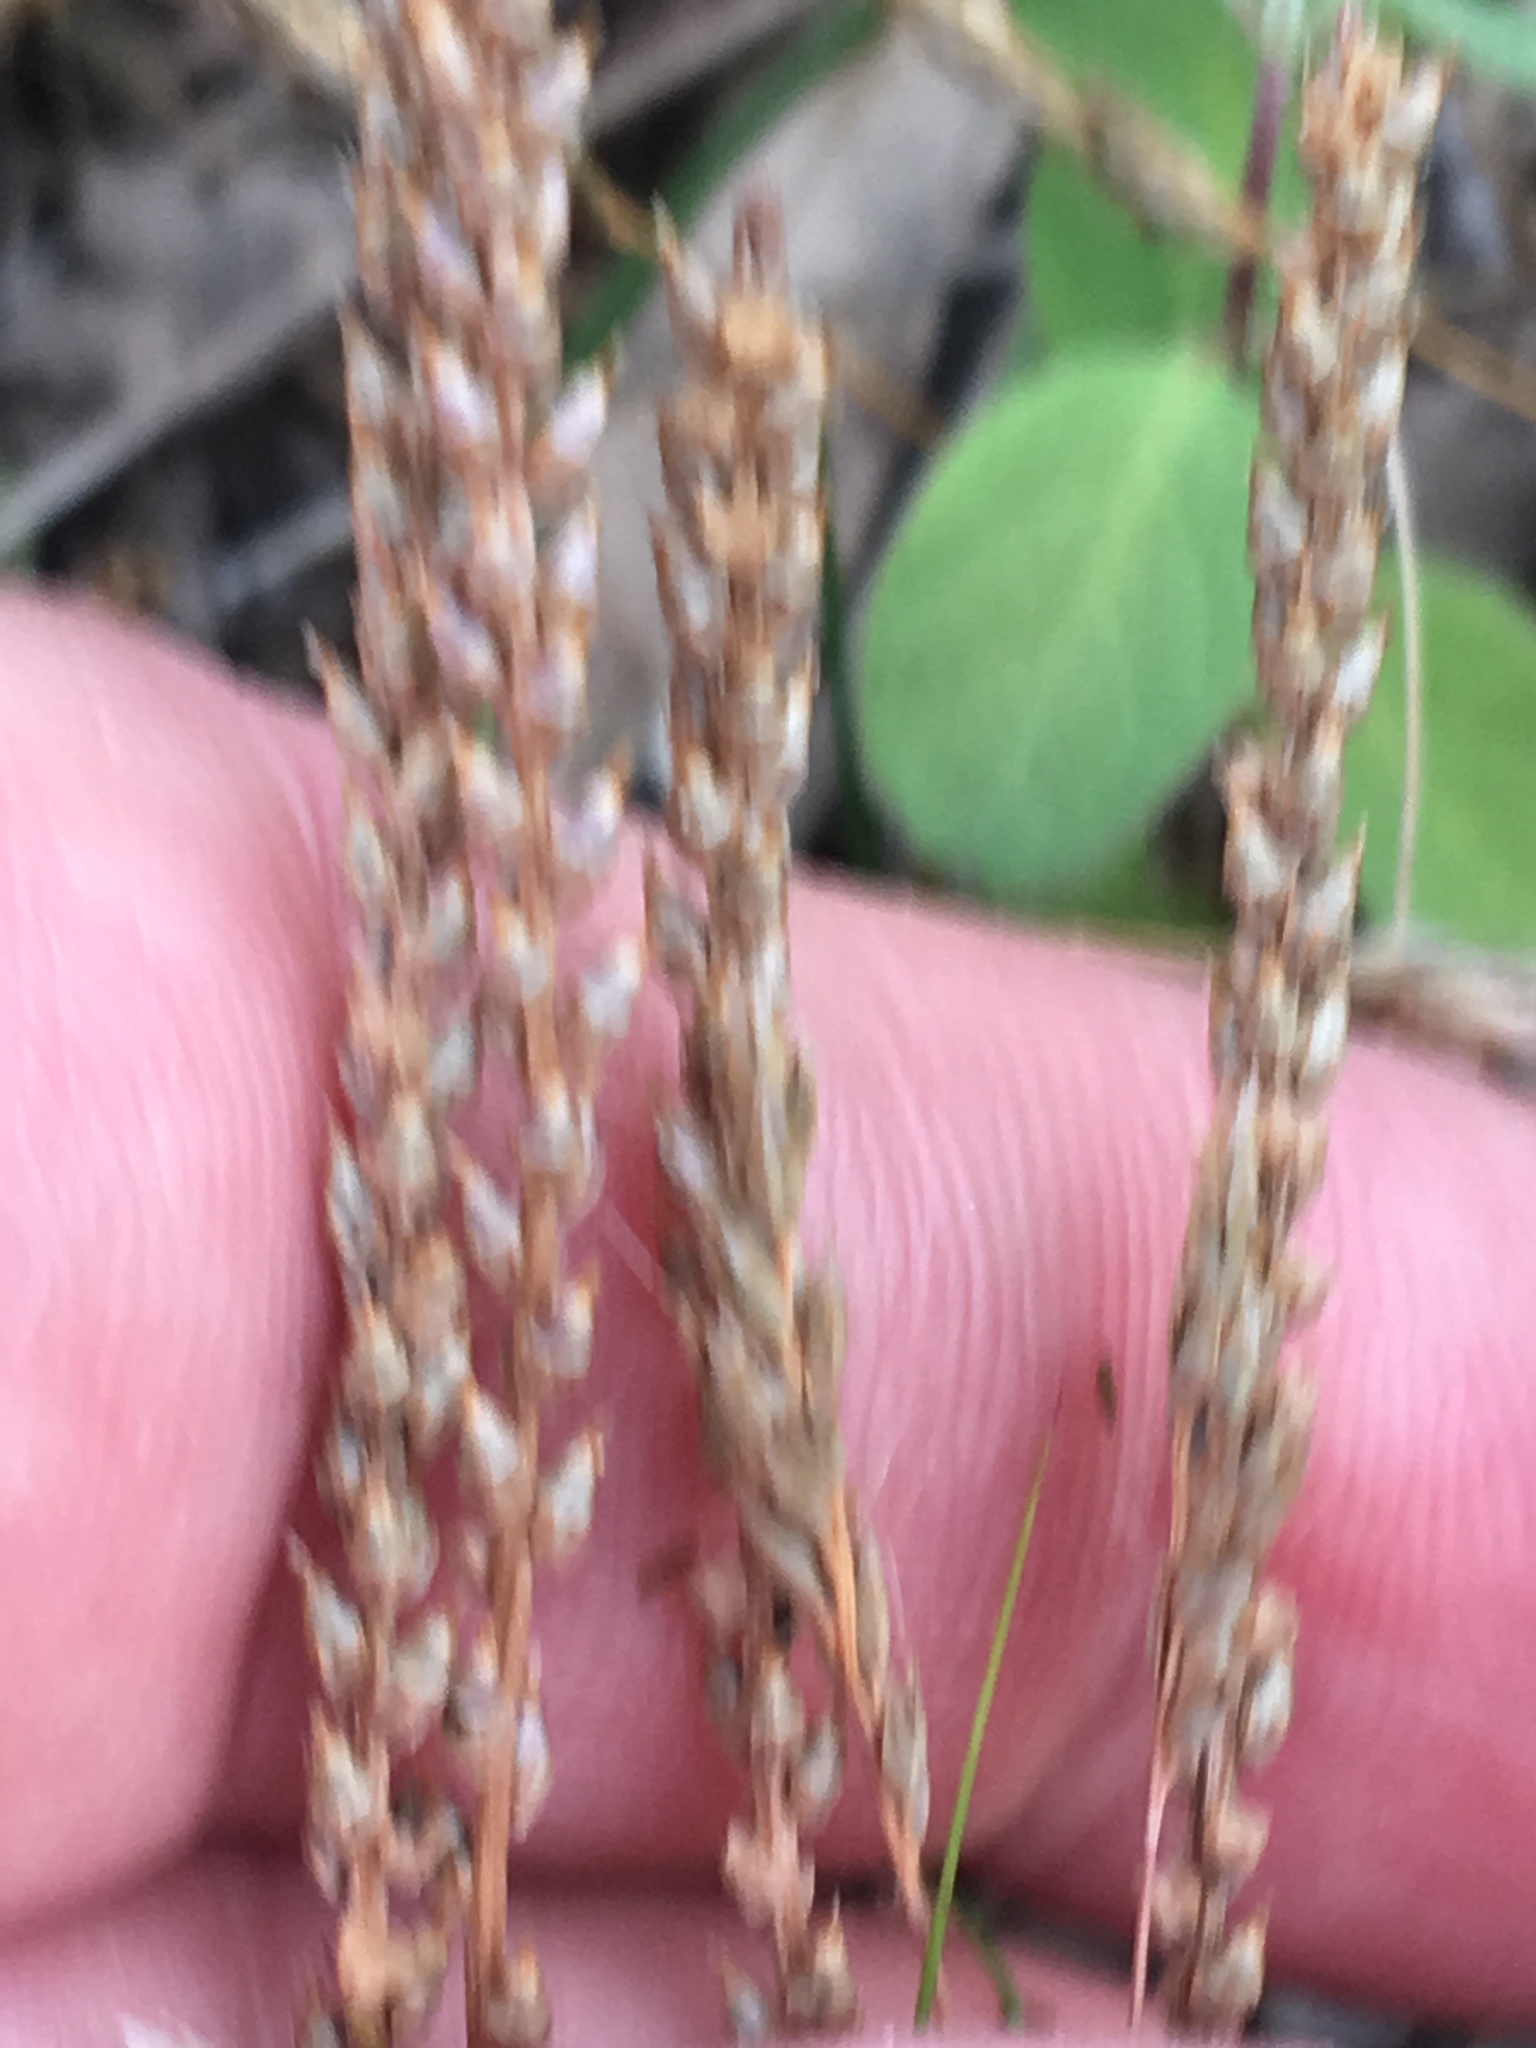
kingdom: Plantae
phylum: Tracheophyta
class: Magnoliopsida
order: Lamiales
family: Plantaginaceae
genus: Plantago
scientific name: Plantago pusilla
